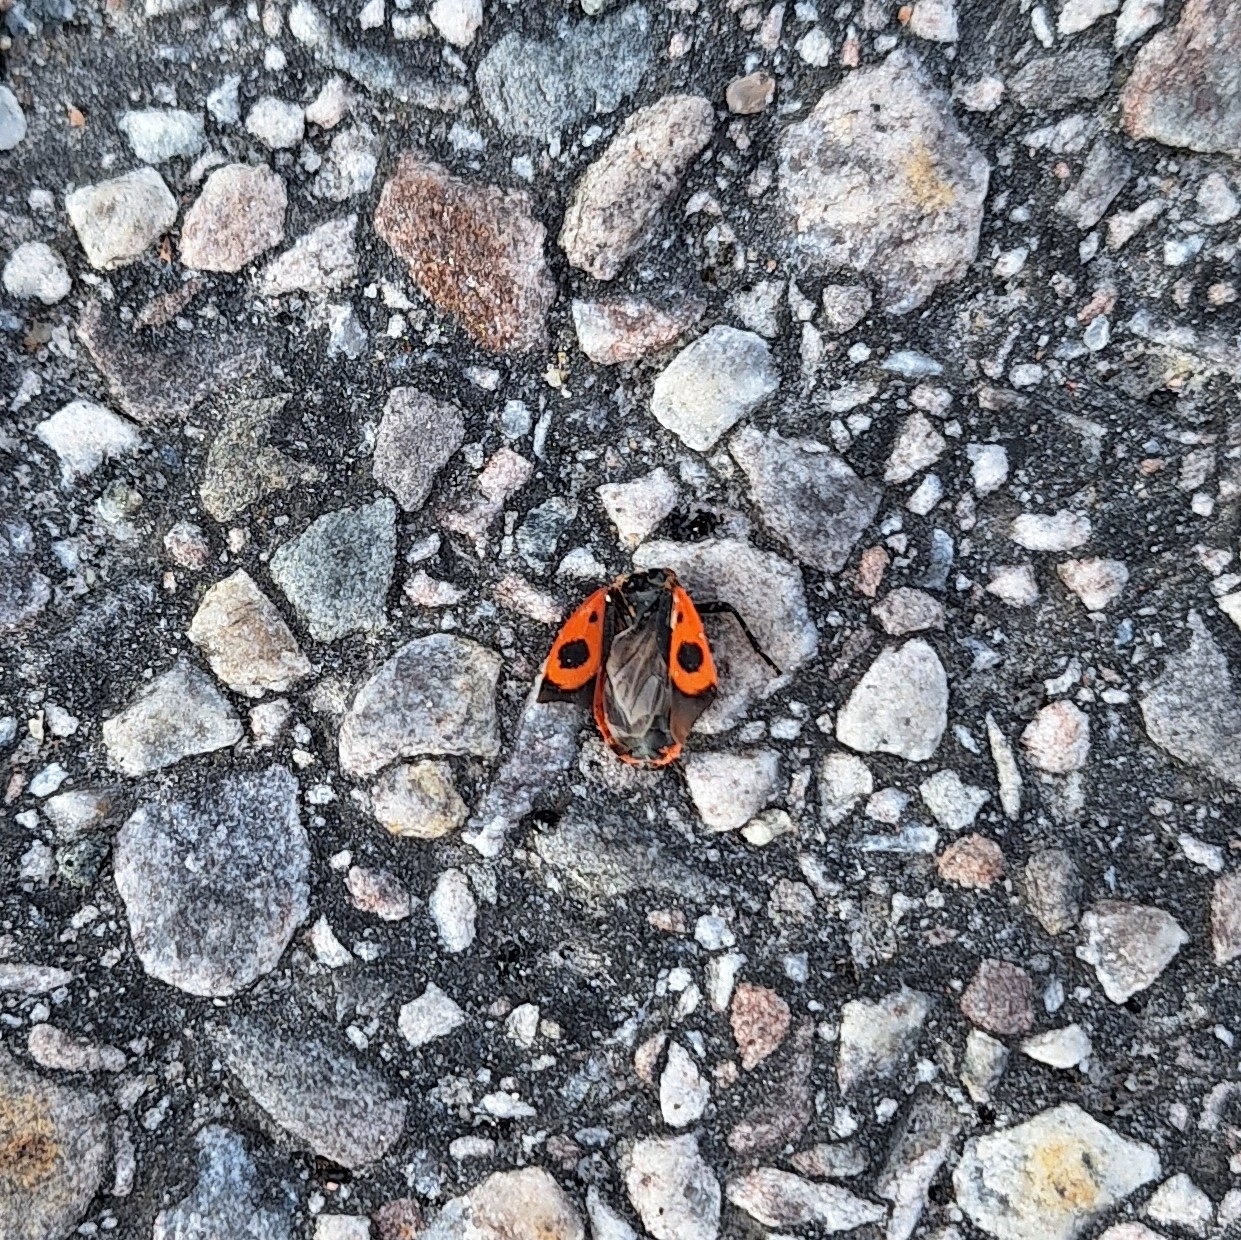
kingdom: Animalia
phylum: Arthropoda
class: Insecta
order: Hemiptera
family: Pyrrhocoridae
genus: Pyrrhocoris
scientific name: Pyrrhocoris apterus
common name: Firebug
